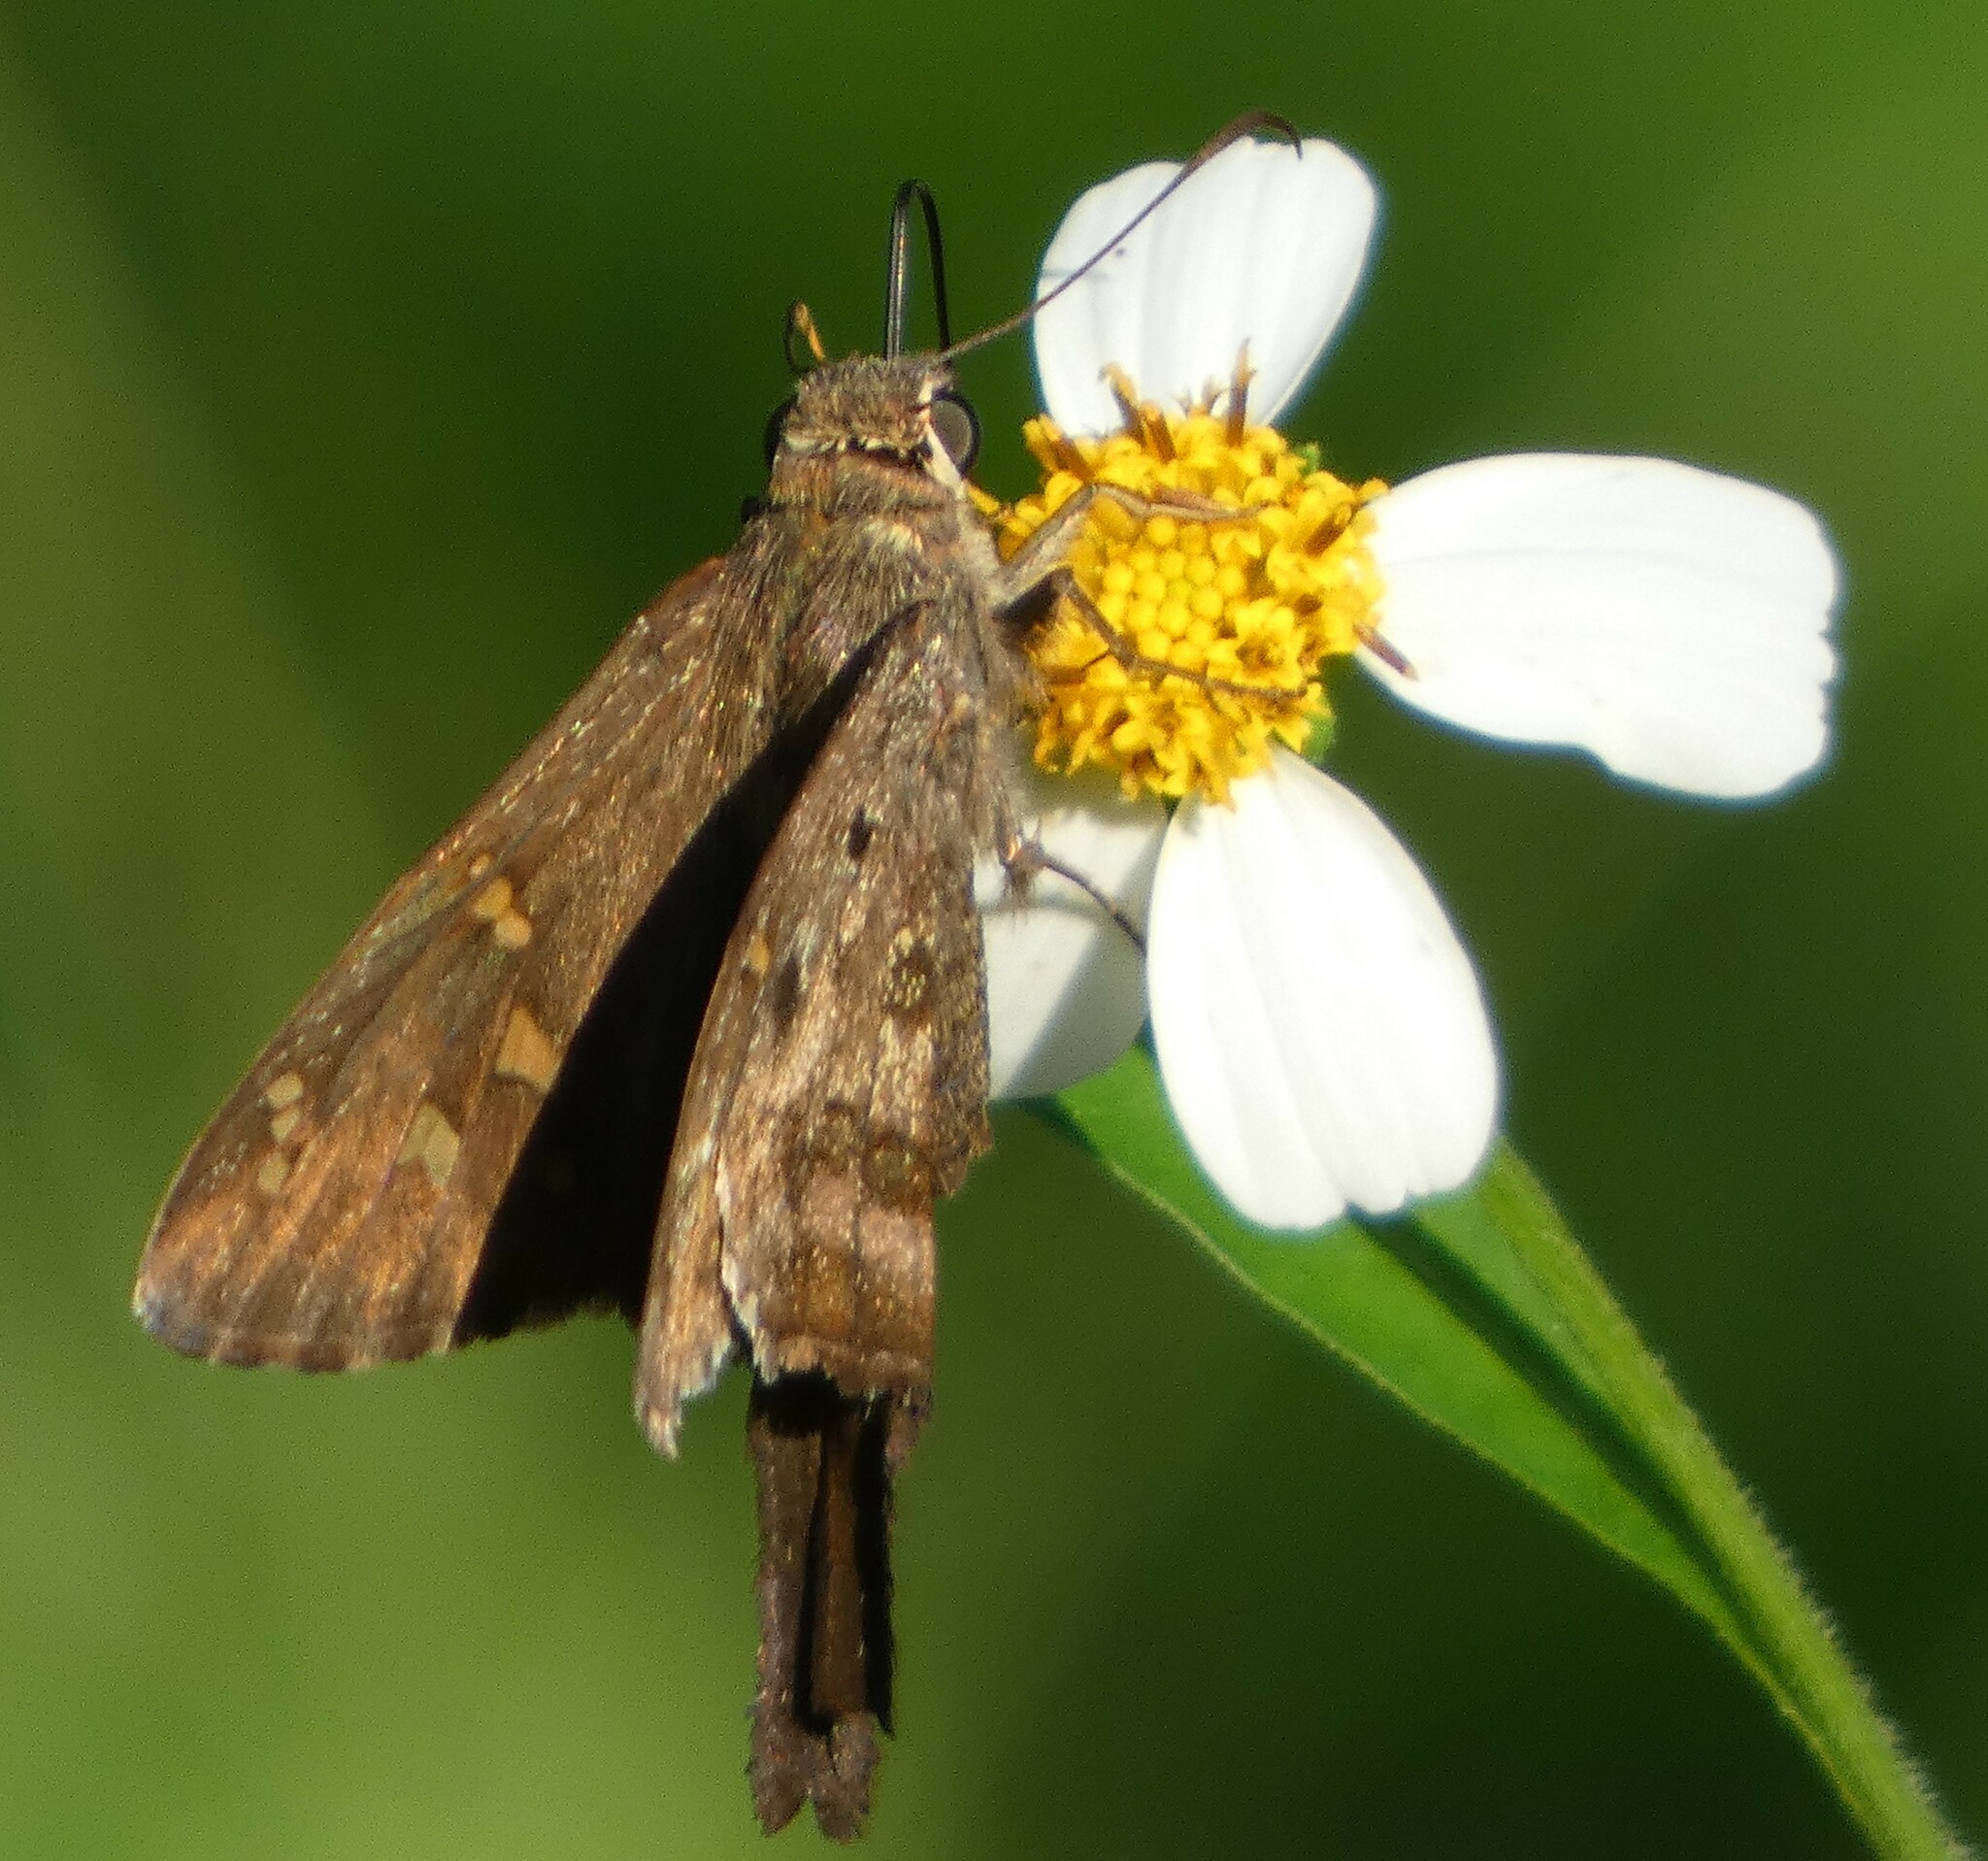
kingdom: Animalia
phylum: Arthropoda
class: Insecta
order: Lepidoptera
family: Hesperiidae
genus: Thorybes
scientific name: Thorybes
